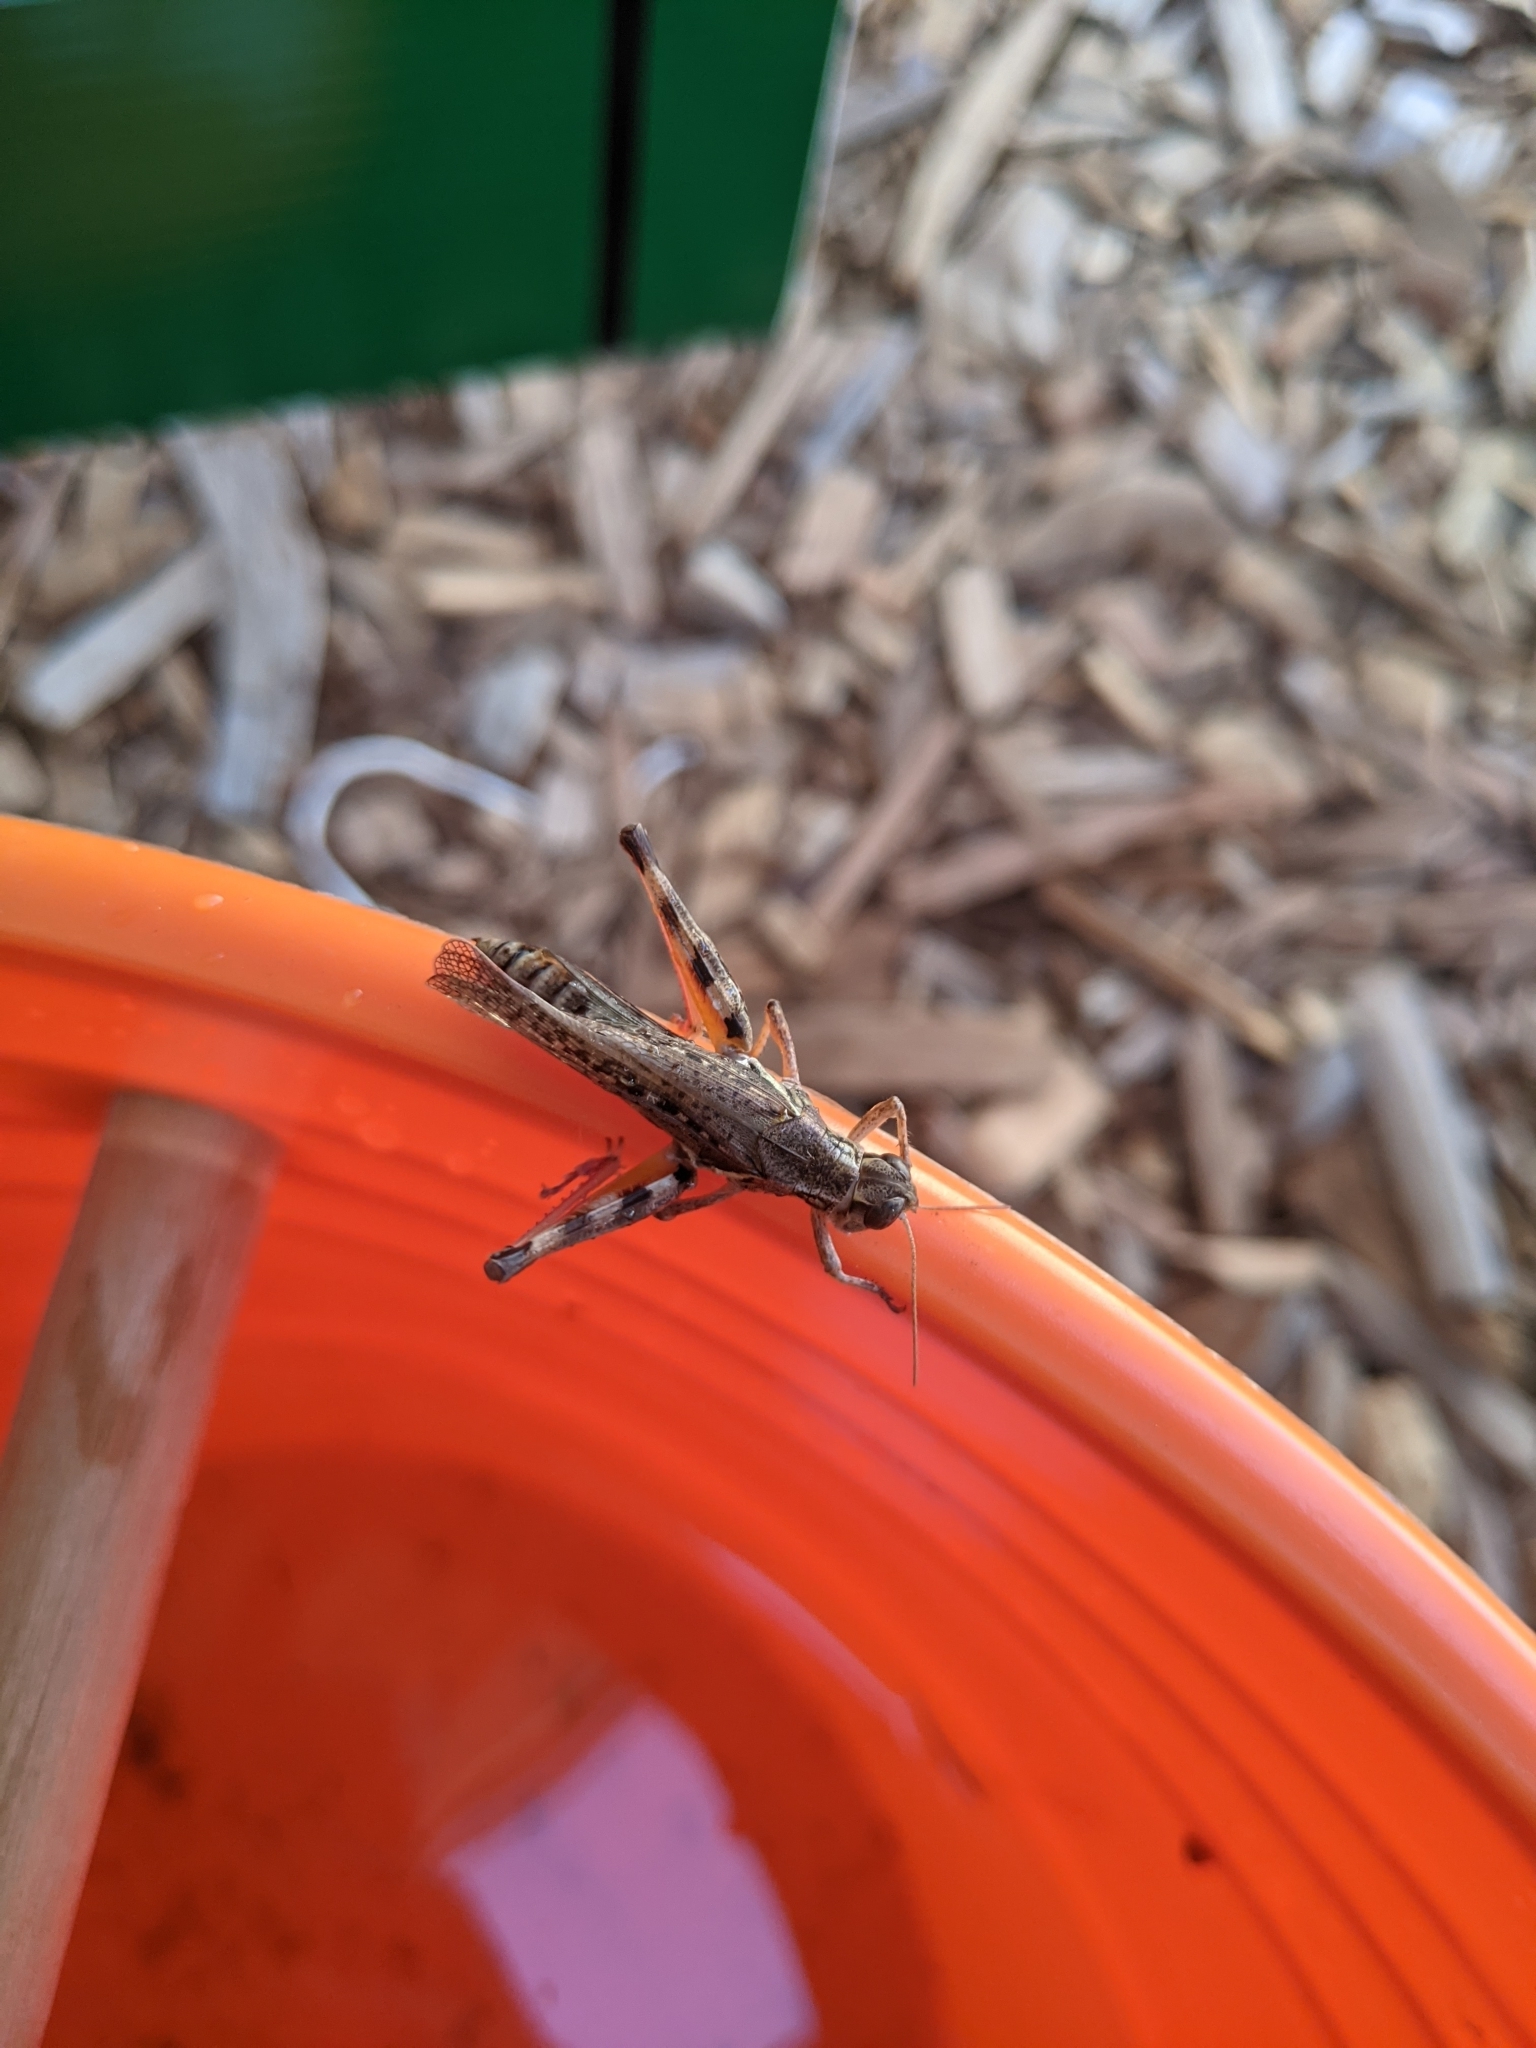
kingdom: Animalia
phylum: Arthropoda
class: Insecta
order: Orthoptera
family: Acrididae
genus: Melanoplus
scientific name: Melanoplus sanguinipes
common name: Migratory grasshopper
